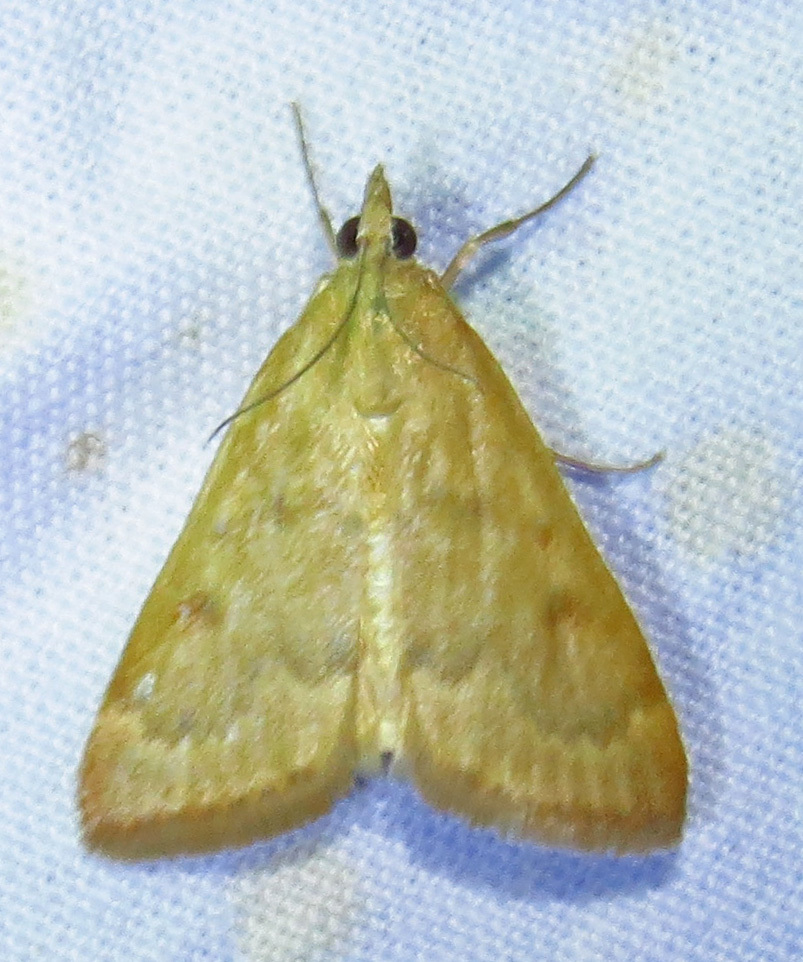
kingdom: Animalia
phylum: Arthropoda
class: Insecta
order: Lepidoptera
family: Crambidae
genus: Achyra
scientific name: Achyra rantalis
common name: Garden webworm
